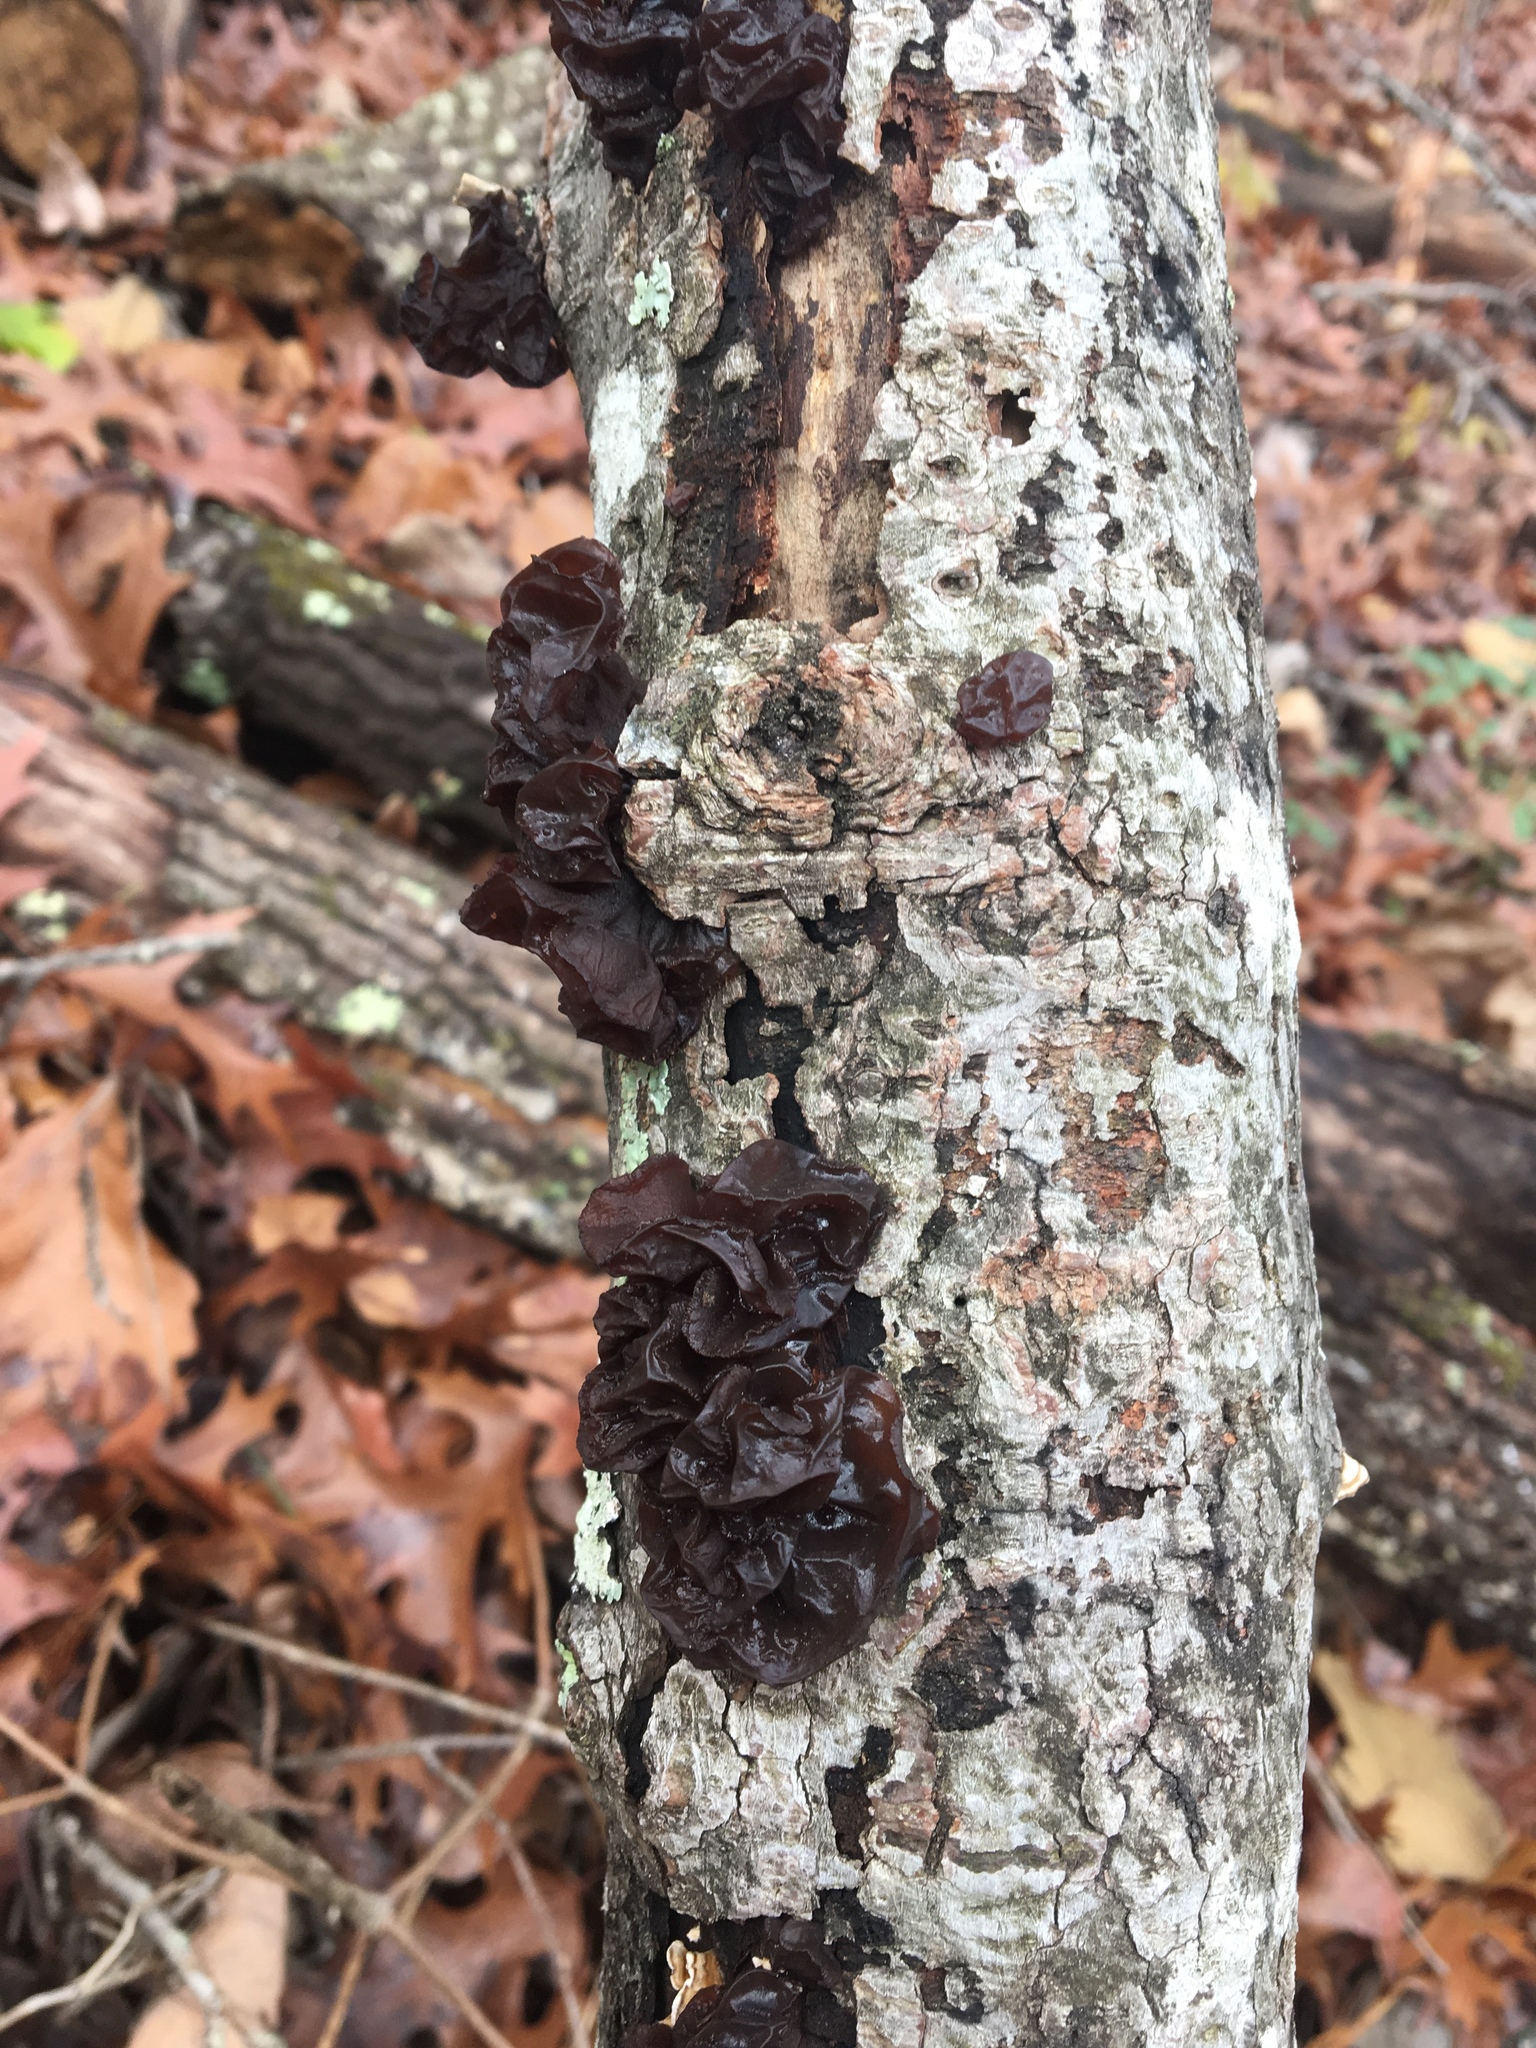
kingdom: Fungi
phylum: Basidiomycota
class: Agaricomycetes
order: Auriculariales
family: Auriculariaceae
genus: Exidia
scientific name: Exidia
